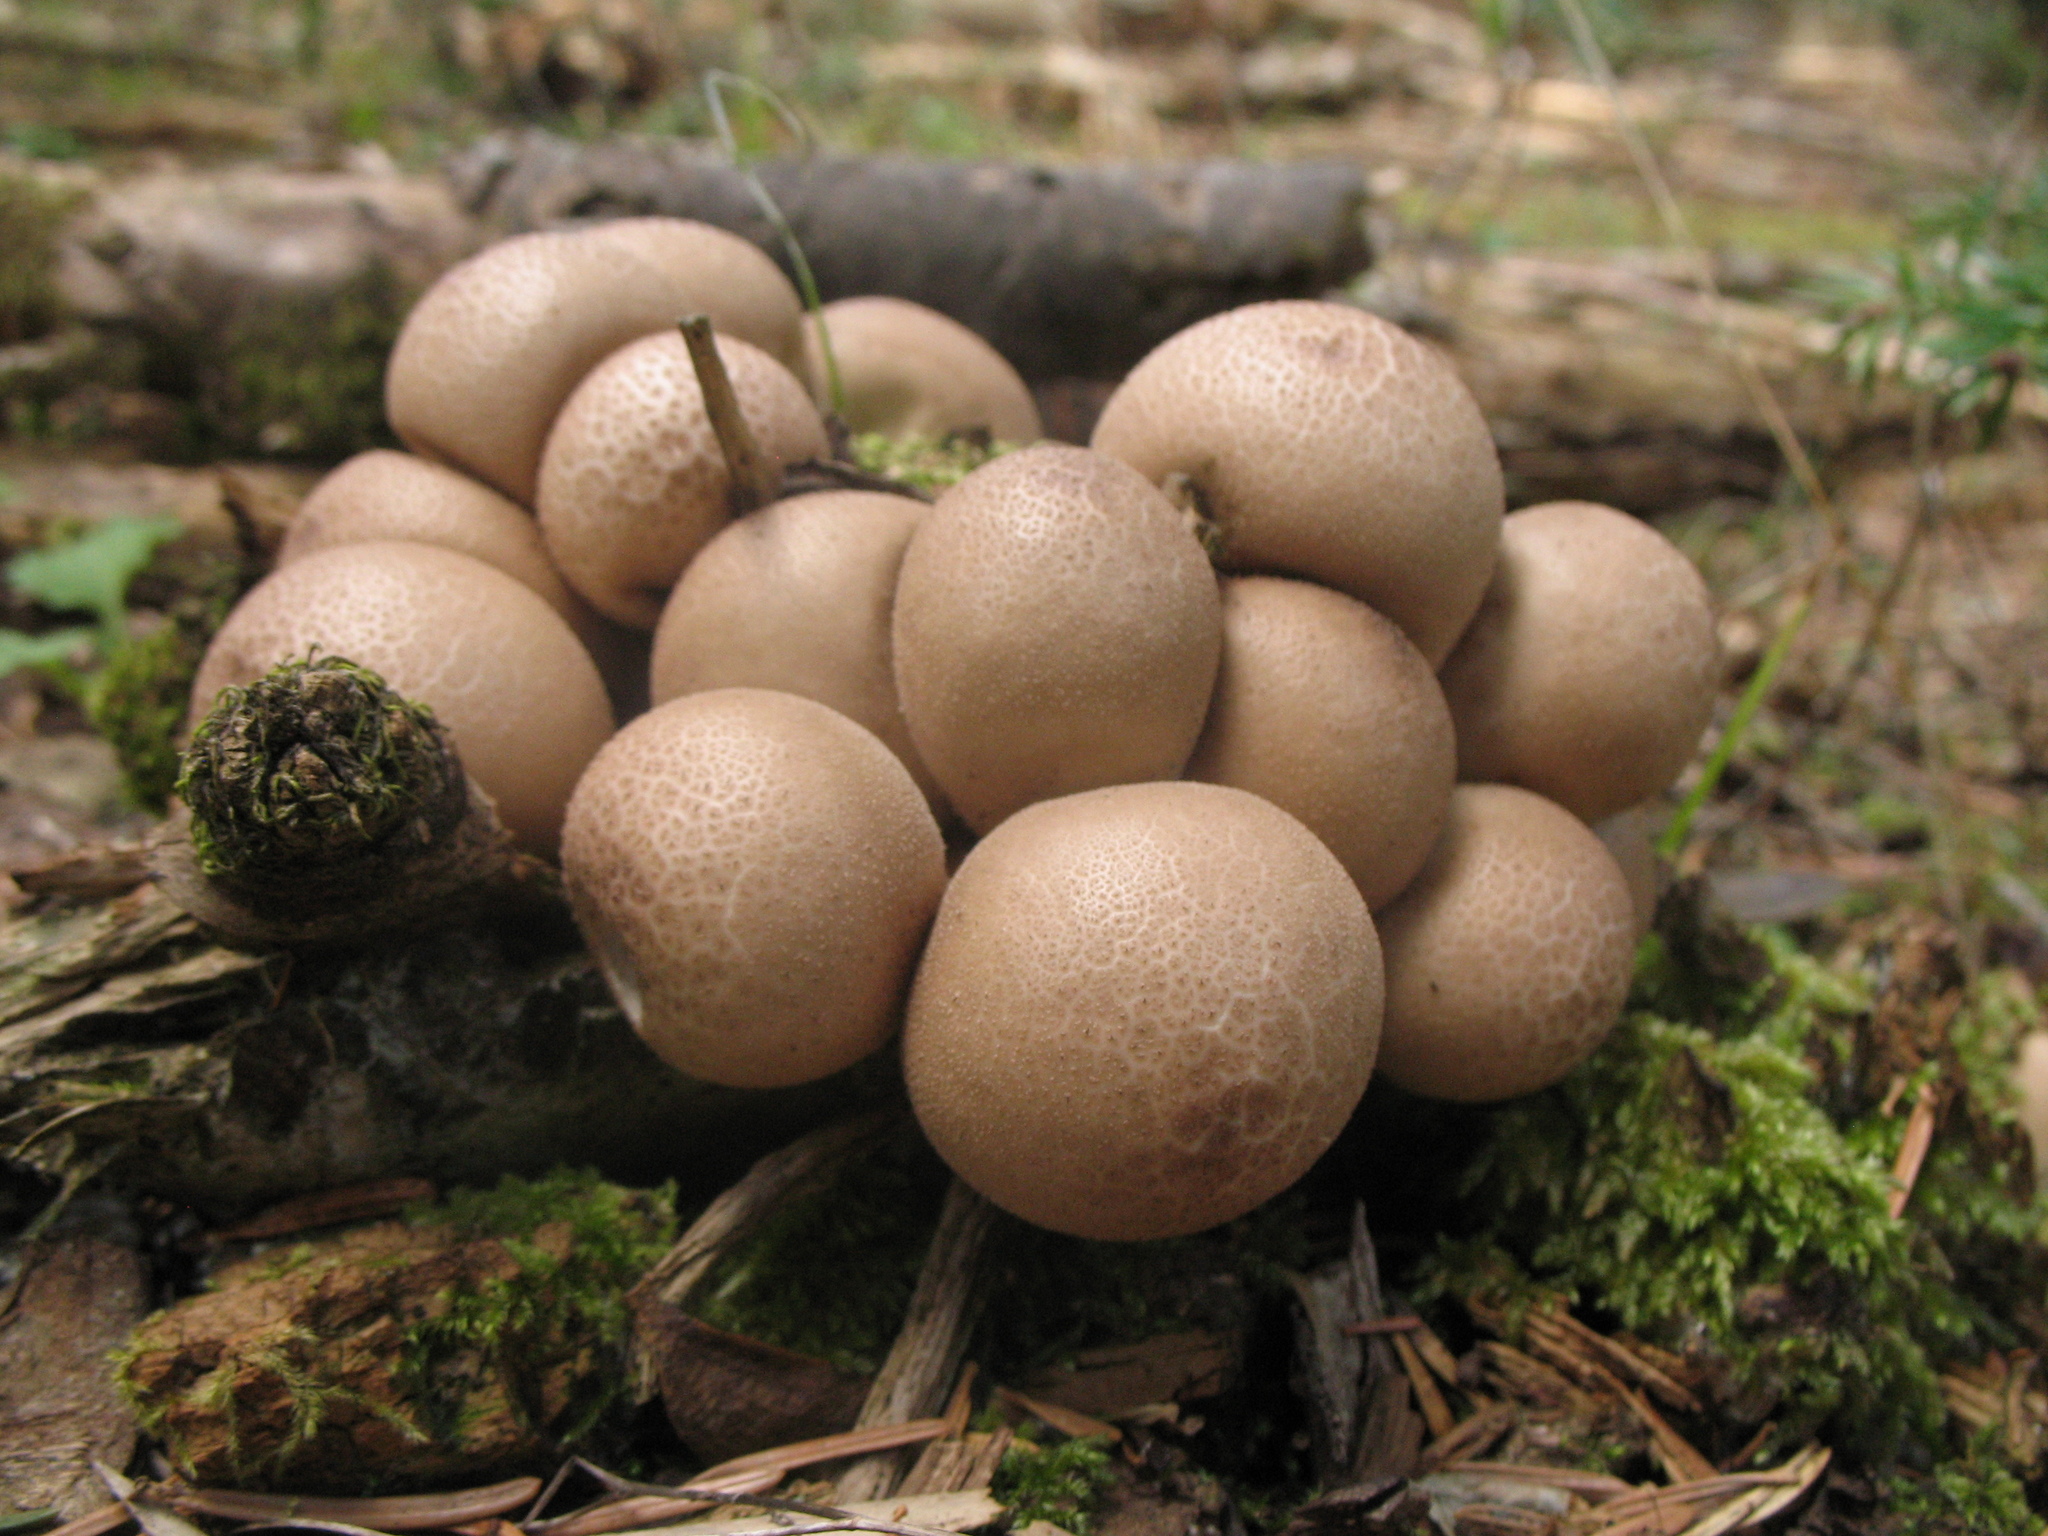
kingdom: Fungi
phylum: Basidiomycota
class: Agaricomycetes
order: Agaricales
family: Lycoperdaceae
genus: Apioperdon
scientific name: Apioperdon pyriforme
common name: Pear-shaped puffball
